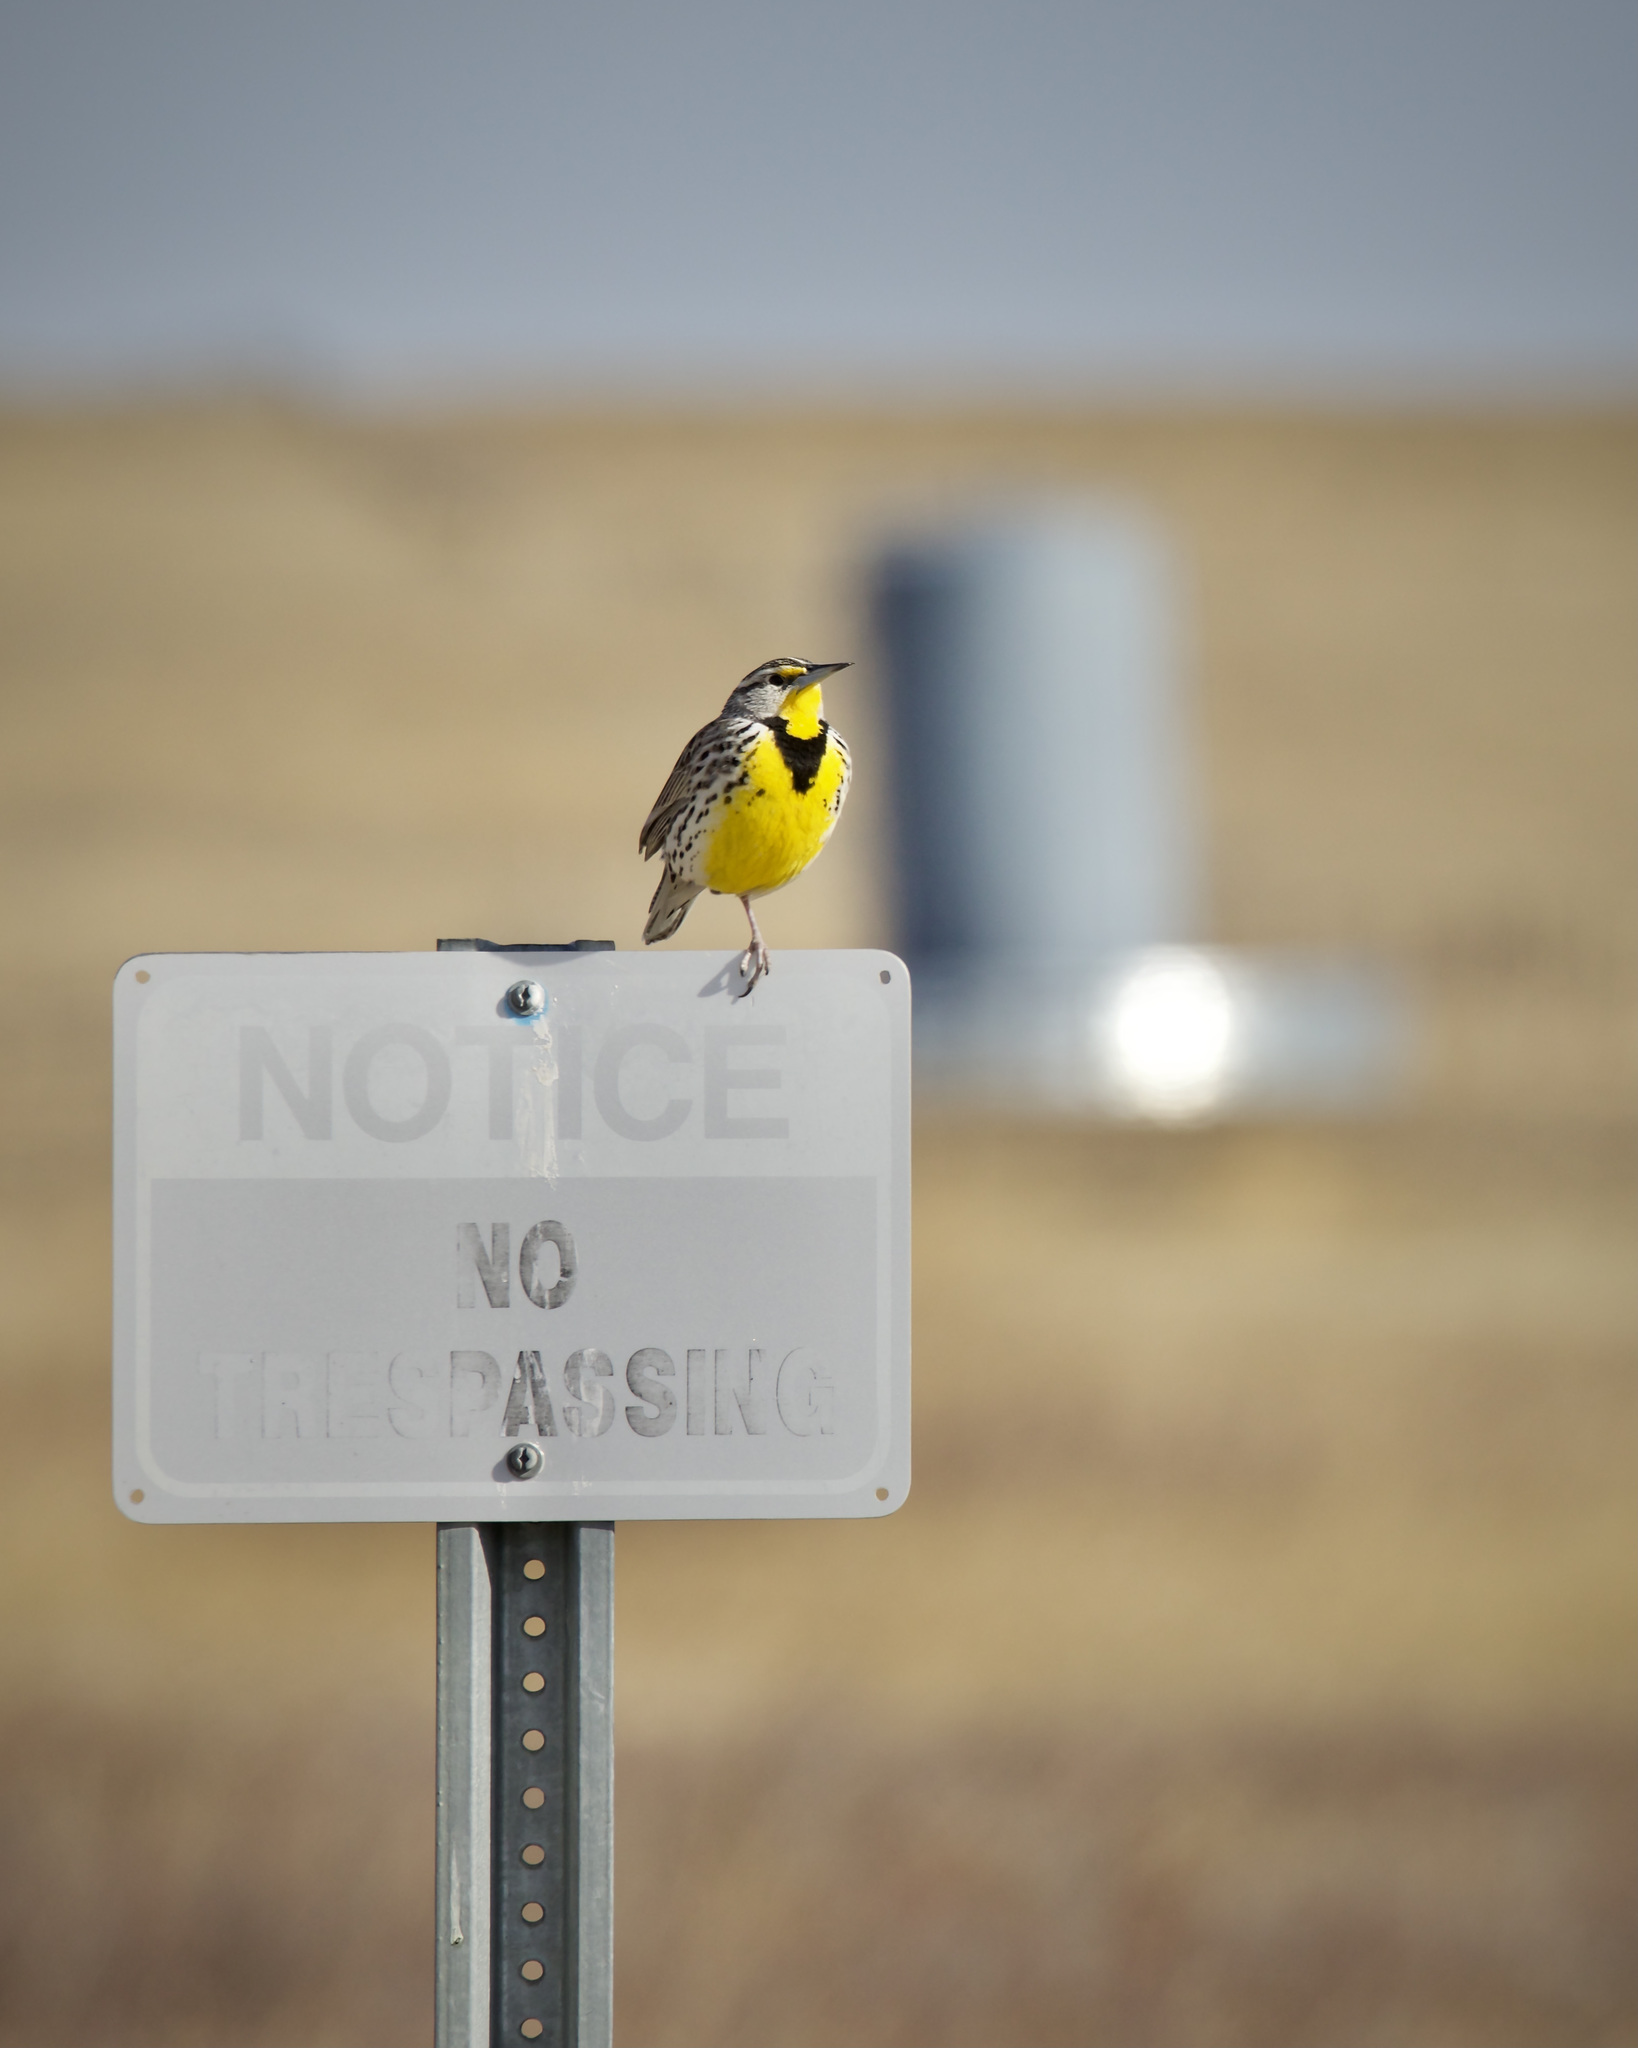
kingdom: Animalia
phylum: Chordata
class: Aves
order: Passeriformes
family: Icteridae
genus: Sturnella
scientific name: Sturnella neglecta
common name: Western meadowlark
